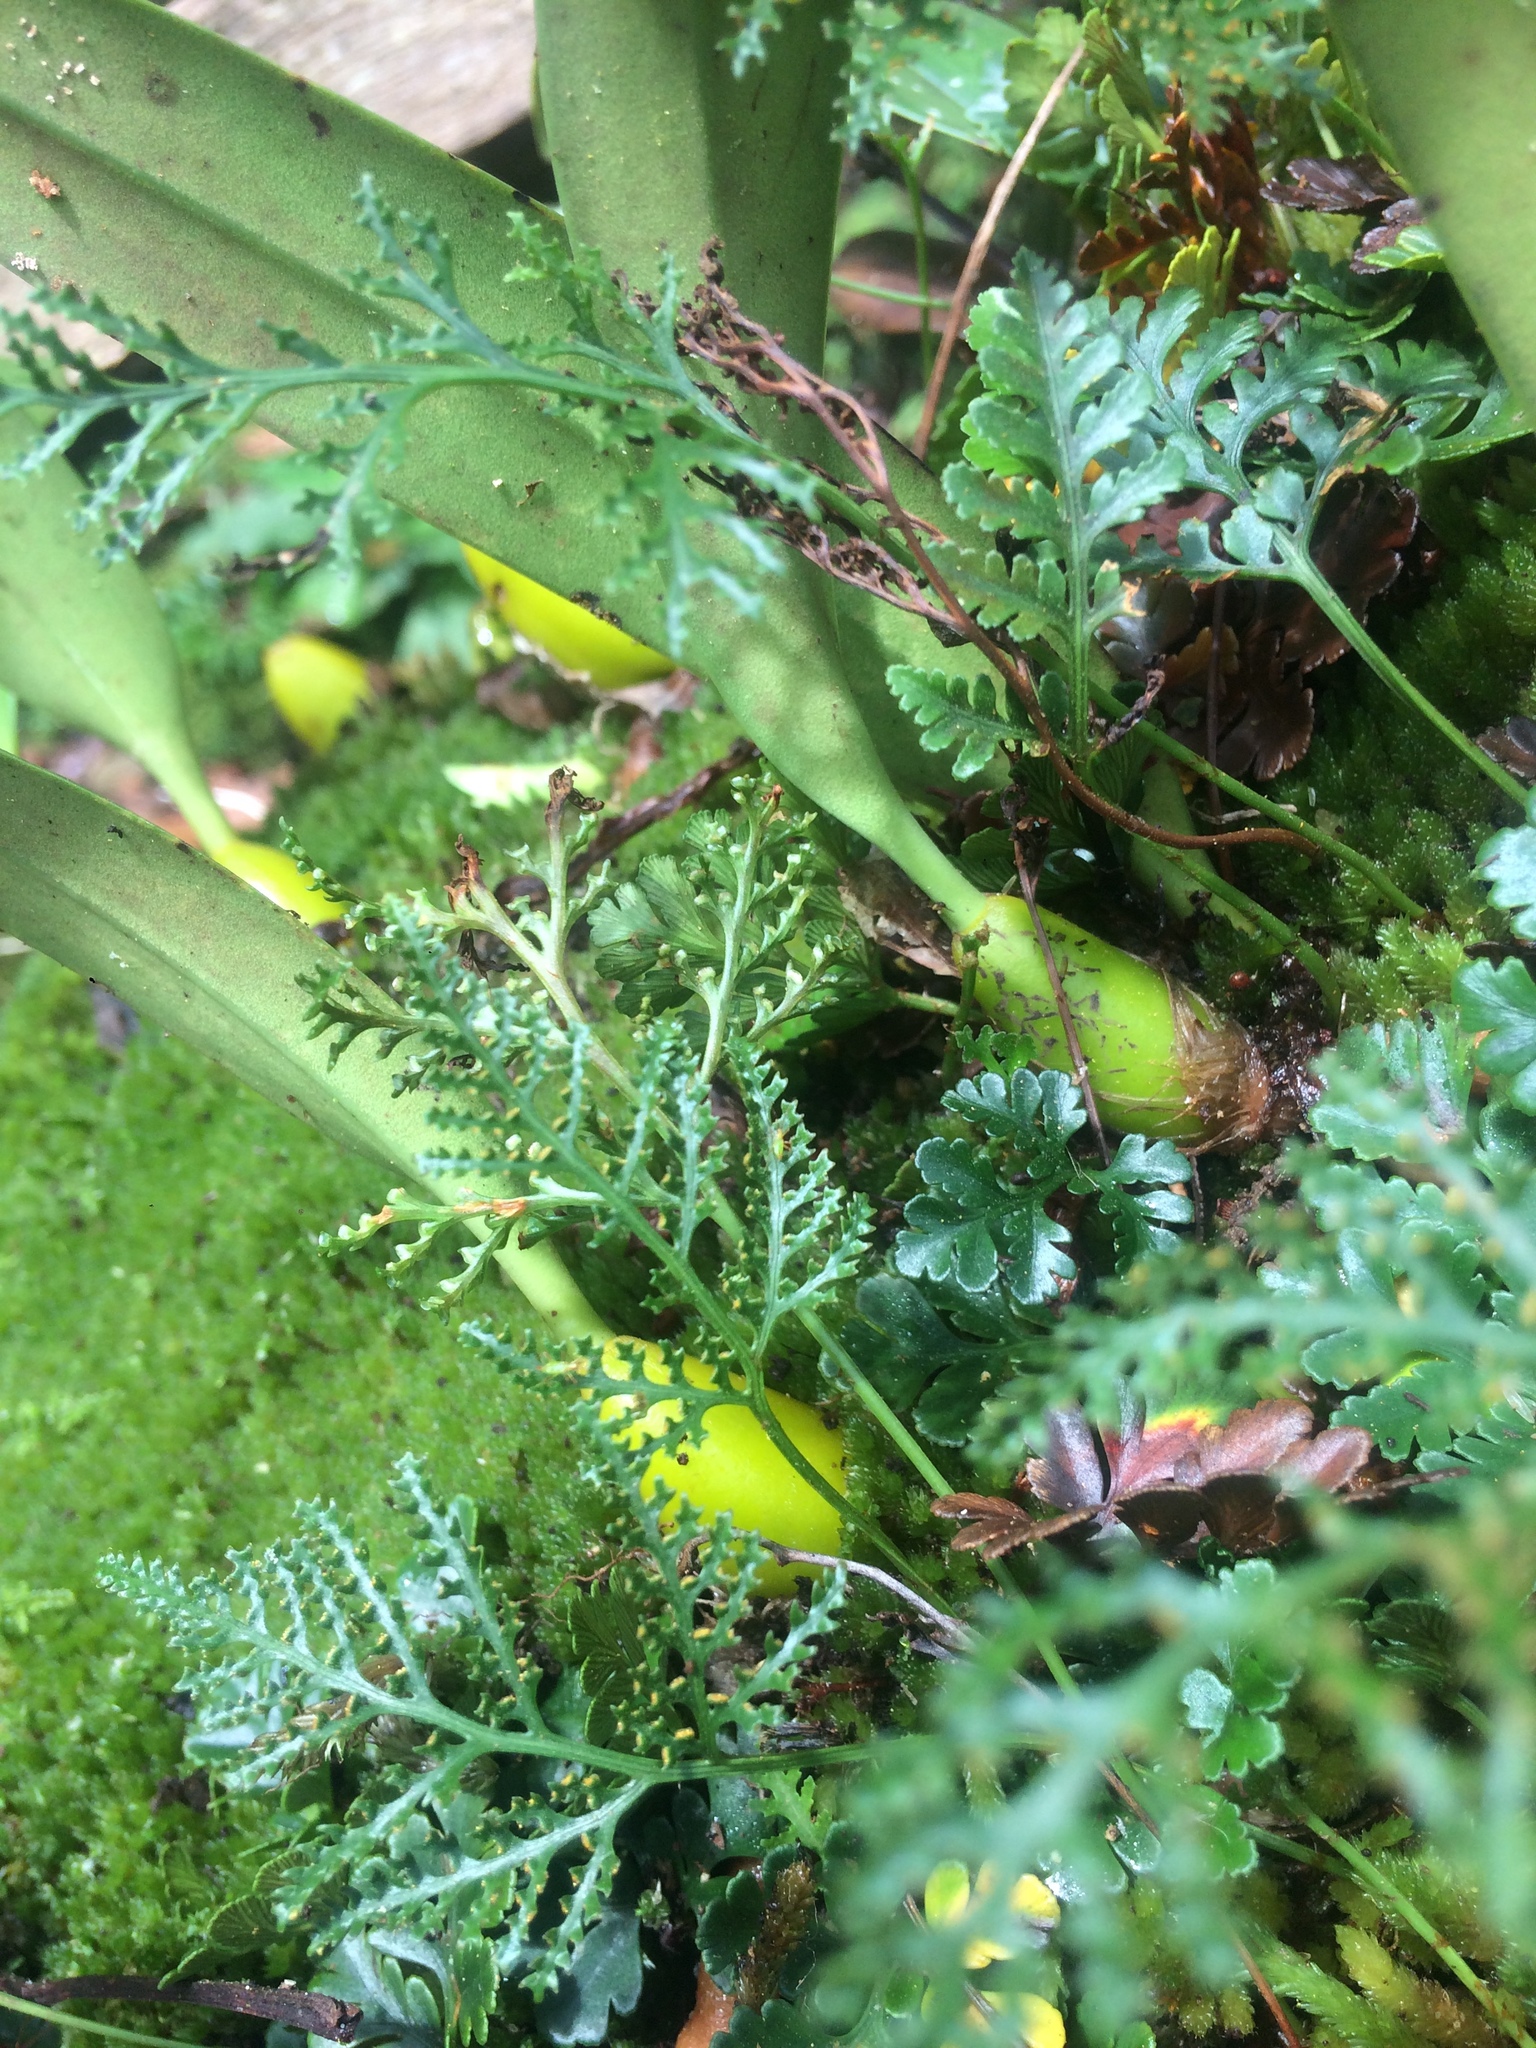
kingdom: Plantae
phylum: Tracheophyta
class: Polypodiopsida
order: Polypodiales
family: Davalliaceae
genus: Davallia
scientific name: Davallia repens
